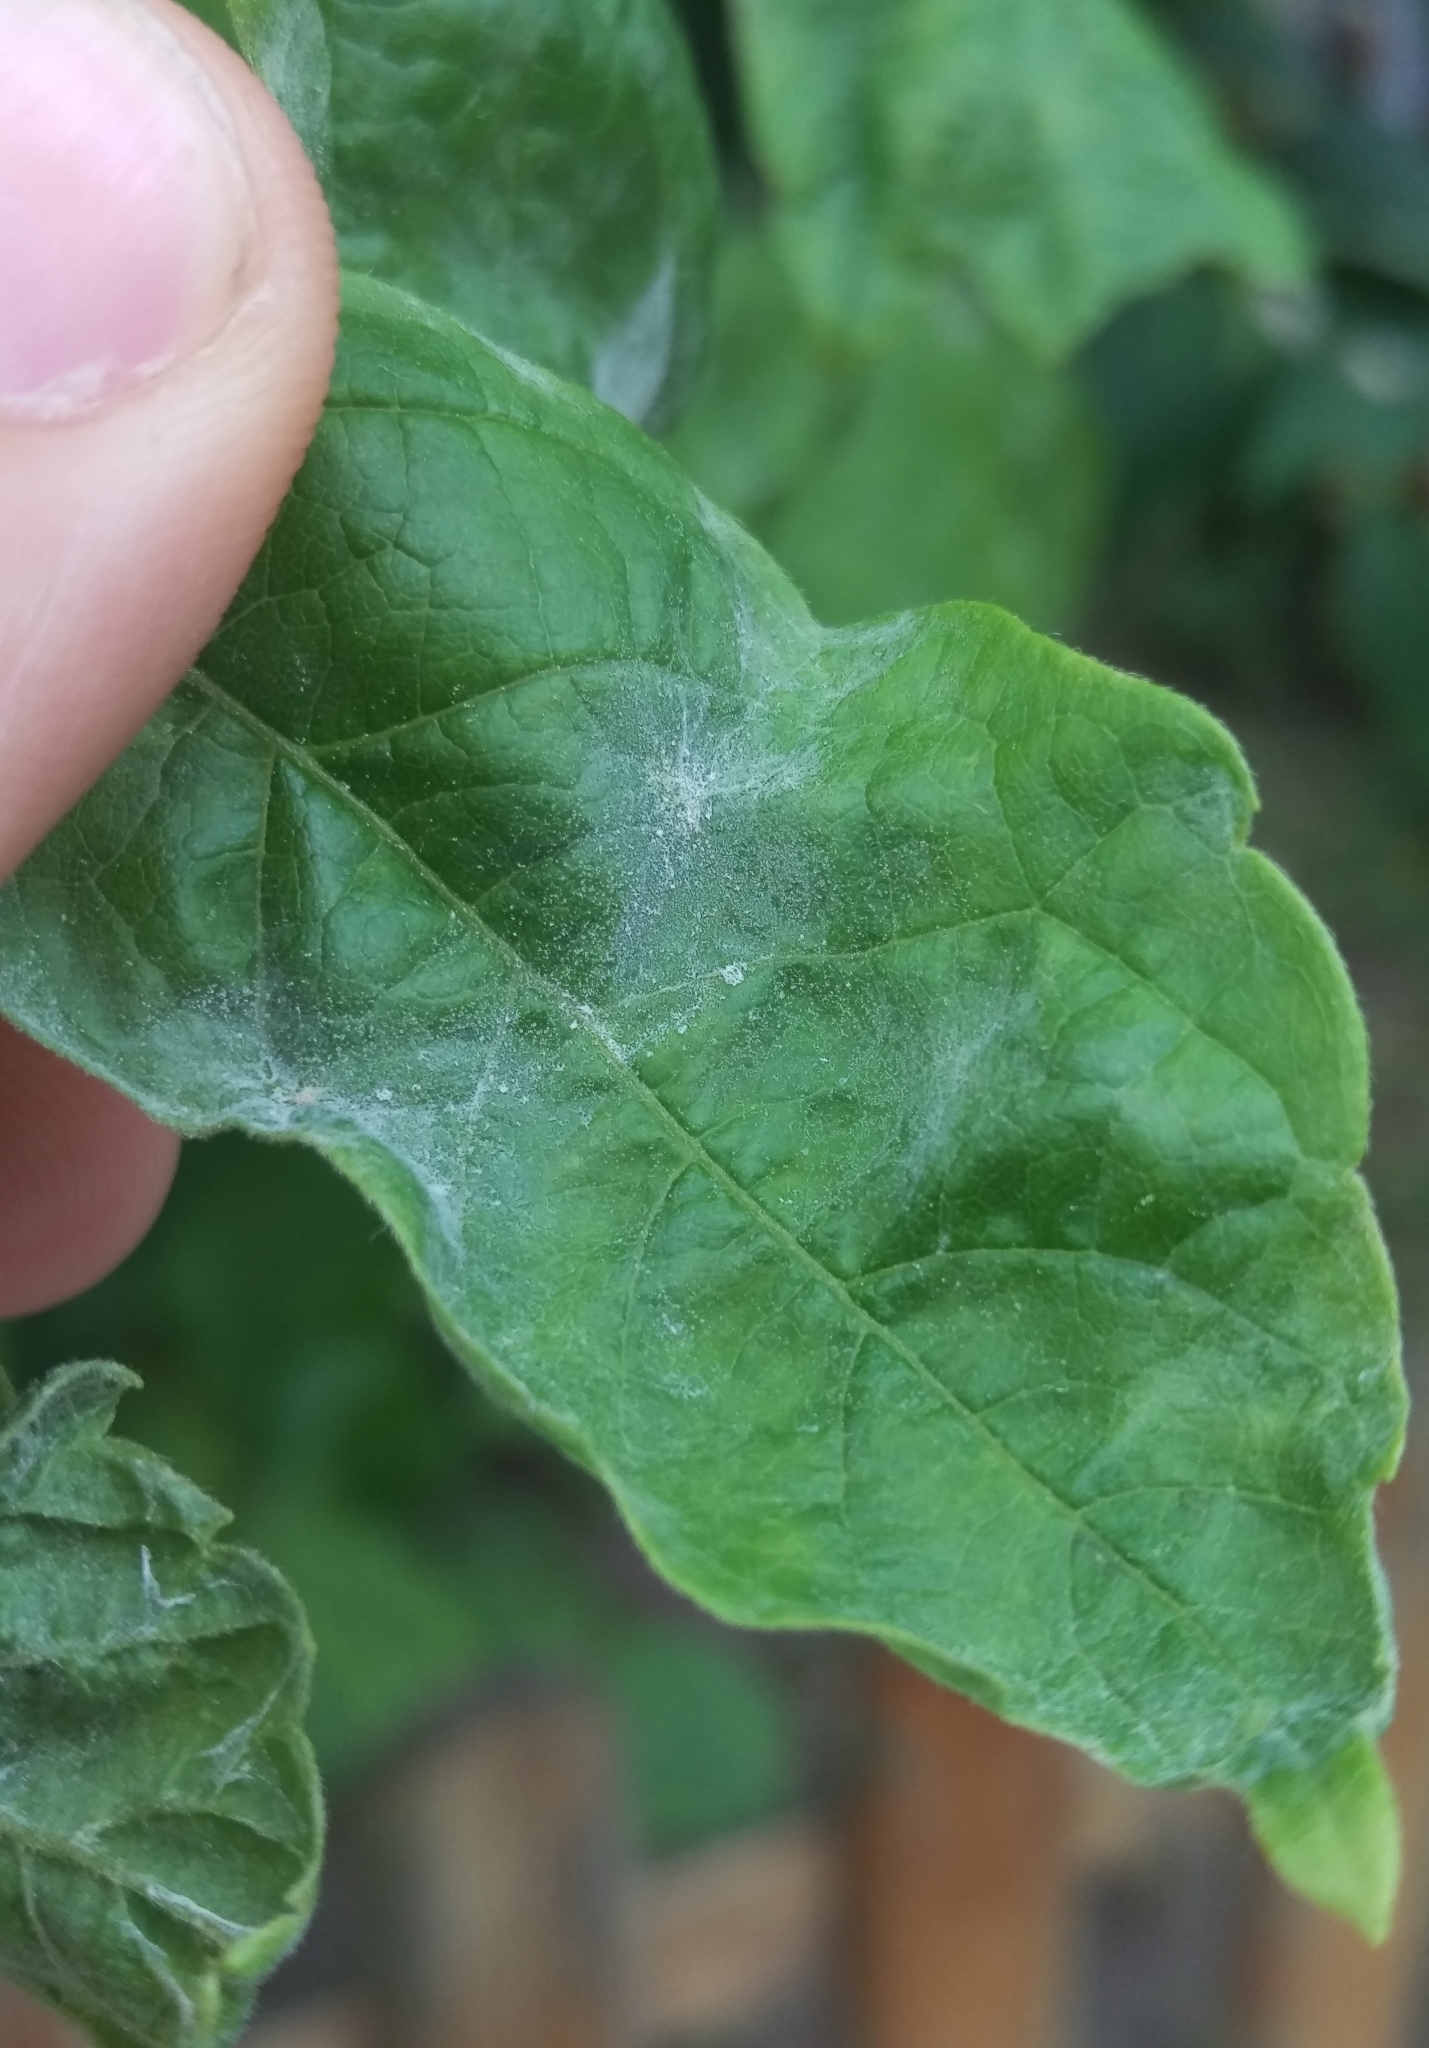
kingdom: Fungi
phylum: Ascomycota
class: Leotiomycetes
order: Helotiales
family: Erysiphaceae
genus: Sawadaea
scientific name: Sawadaea bicornis
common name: Maple mildew
